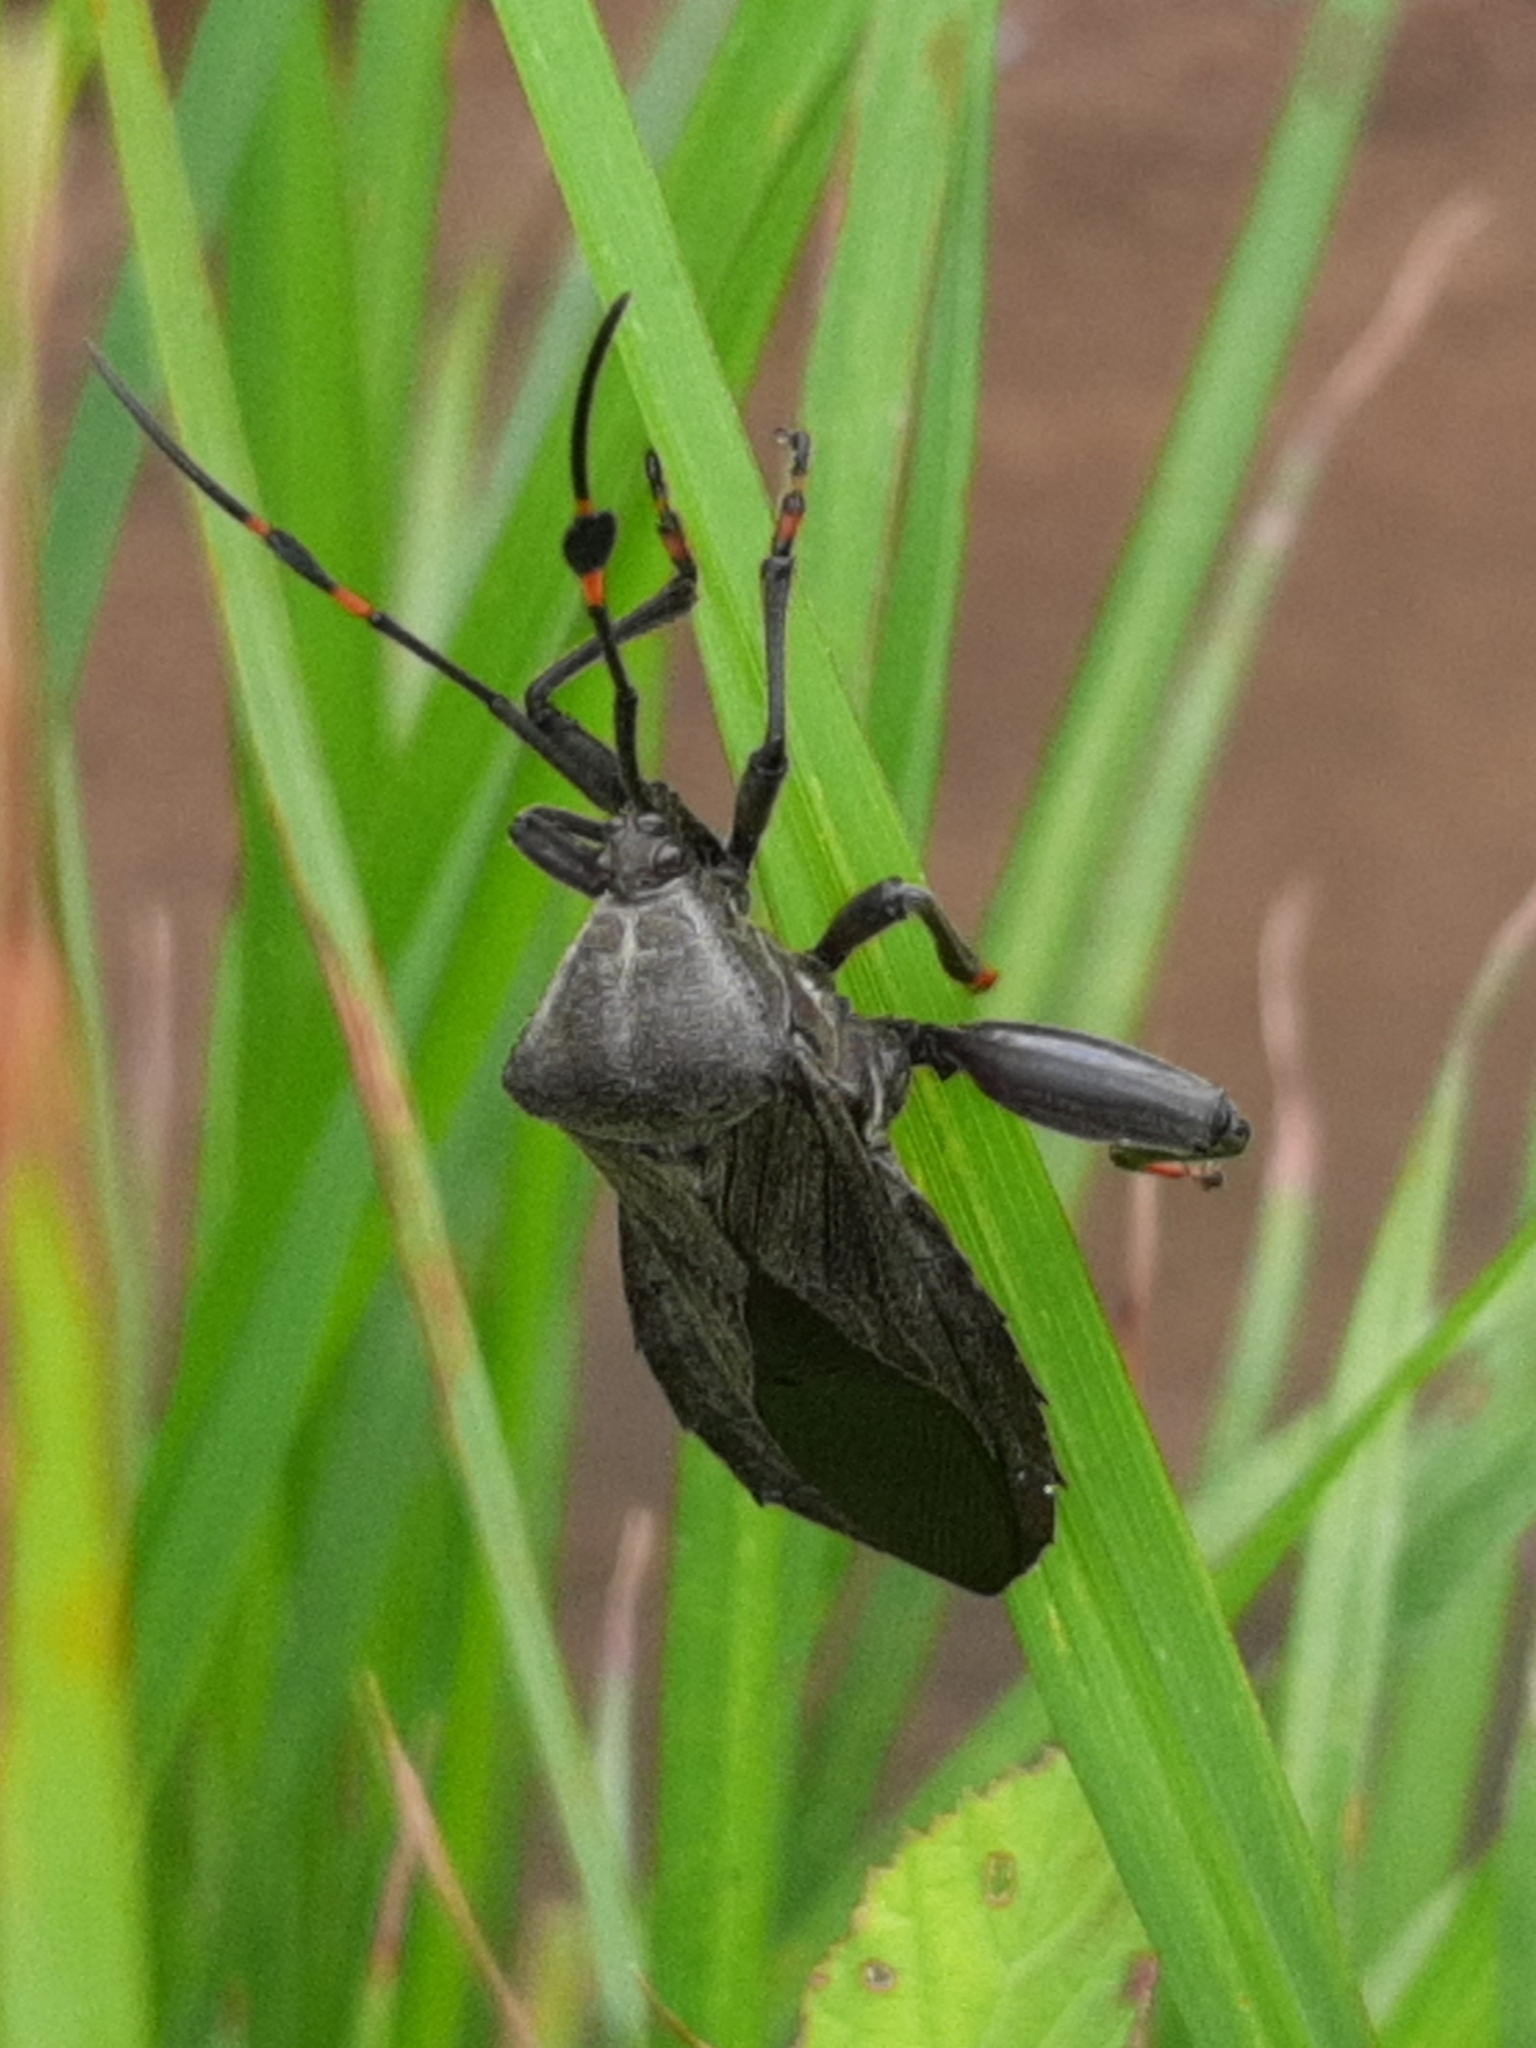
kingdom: Animalia
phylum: Arthropoda
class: Insecta
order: Hemiptera
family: Coreidae
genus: Pachylis
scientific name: Pachylis nervosus
